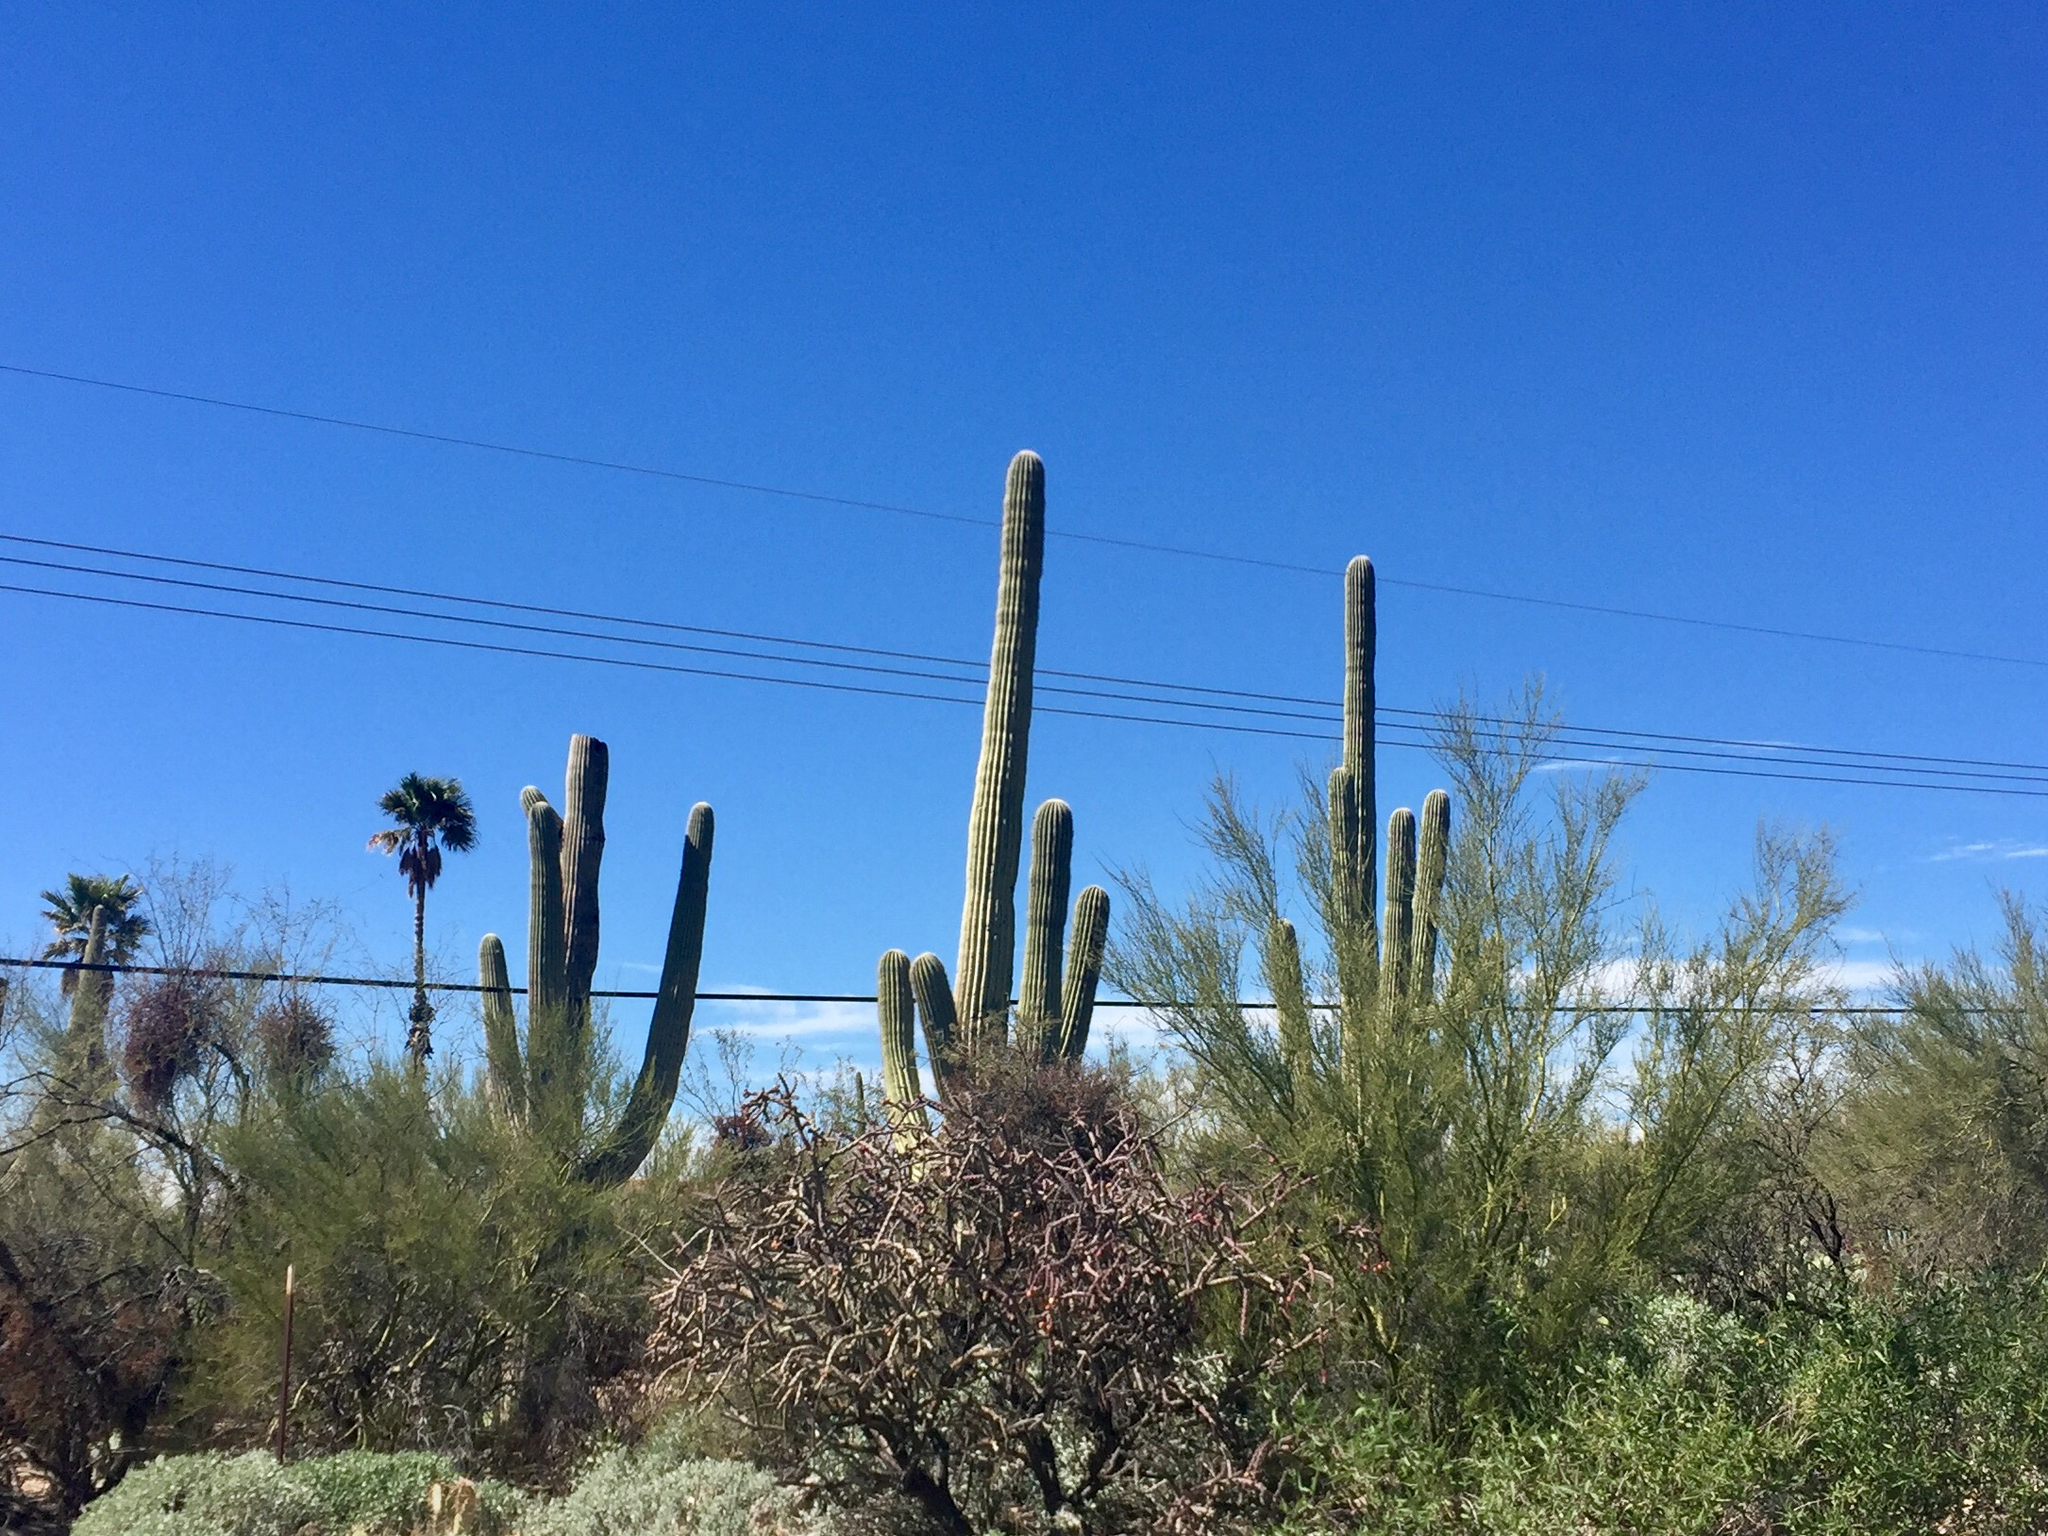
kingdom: Plantae
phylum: Tracheophyta
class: Magnoliopsida
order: Caryophyllales
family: Cactaceae
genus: Carnegiea
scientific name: Carnegiea gigantea
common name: Saguaro
